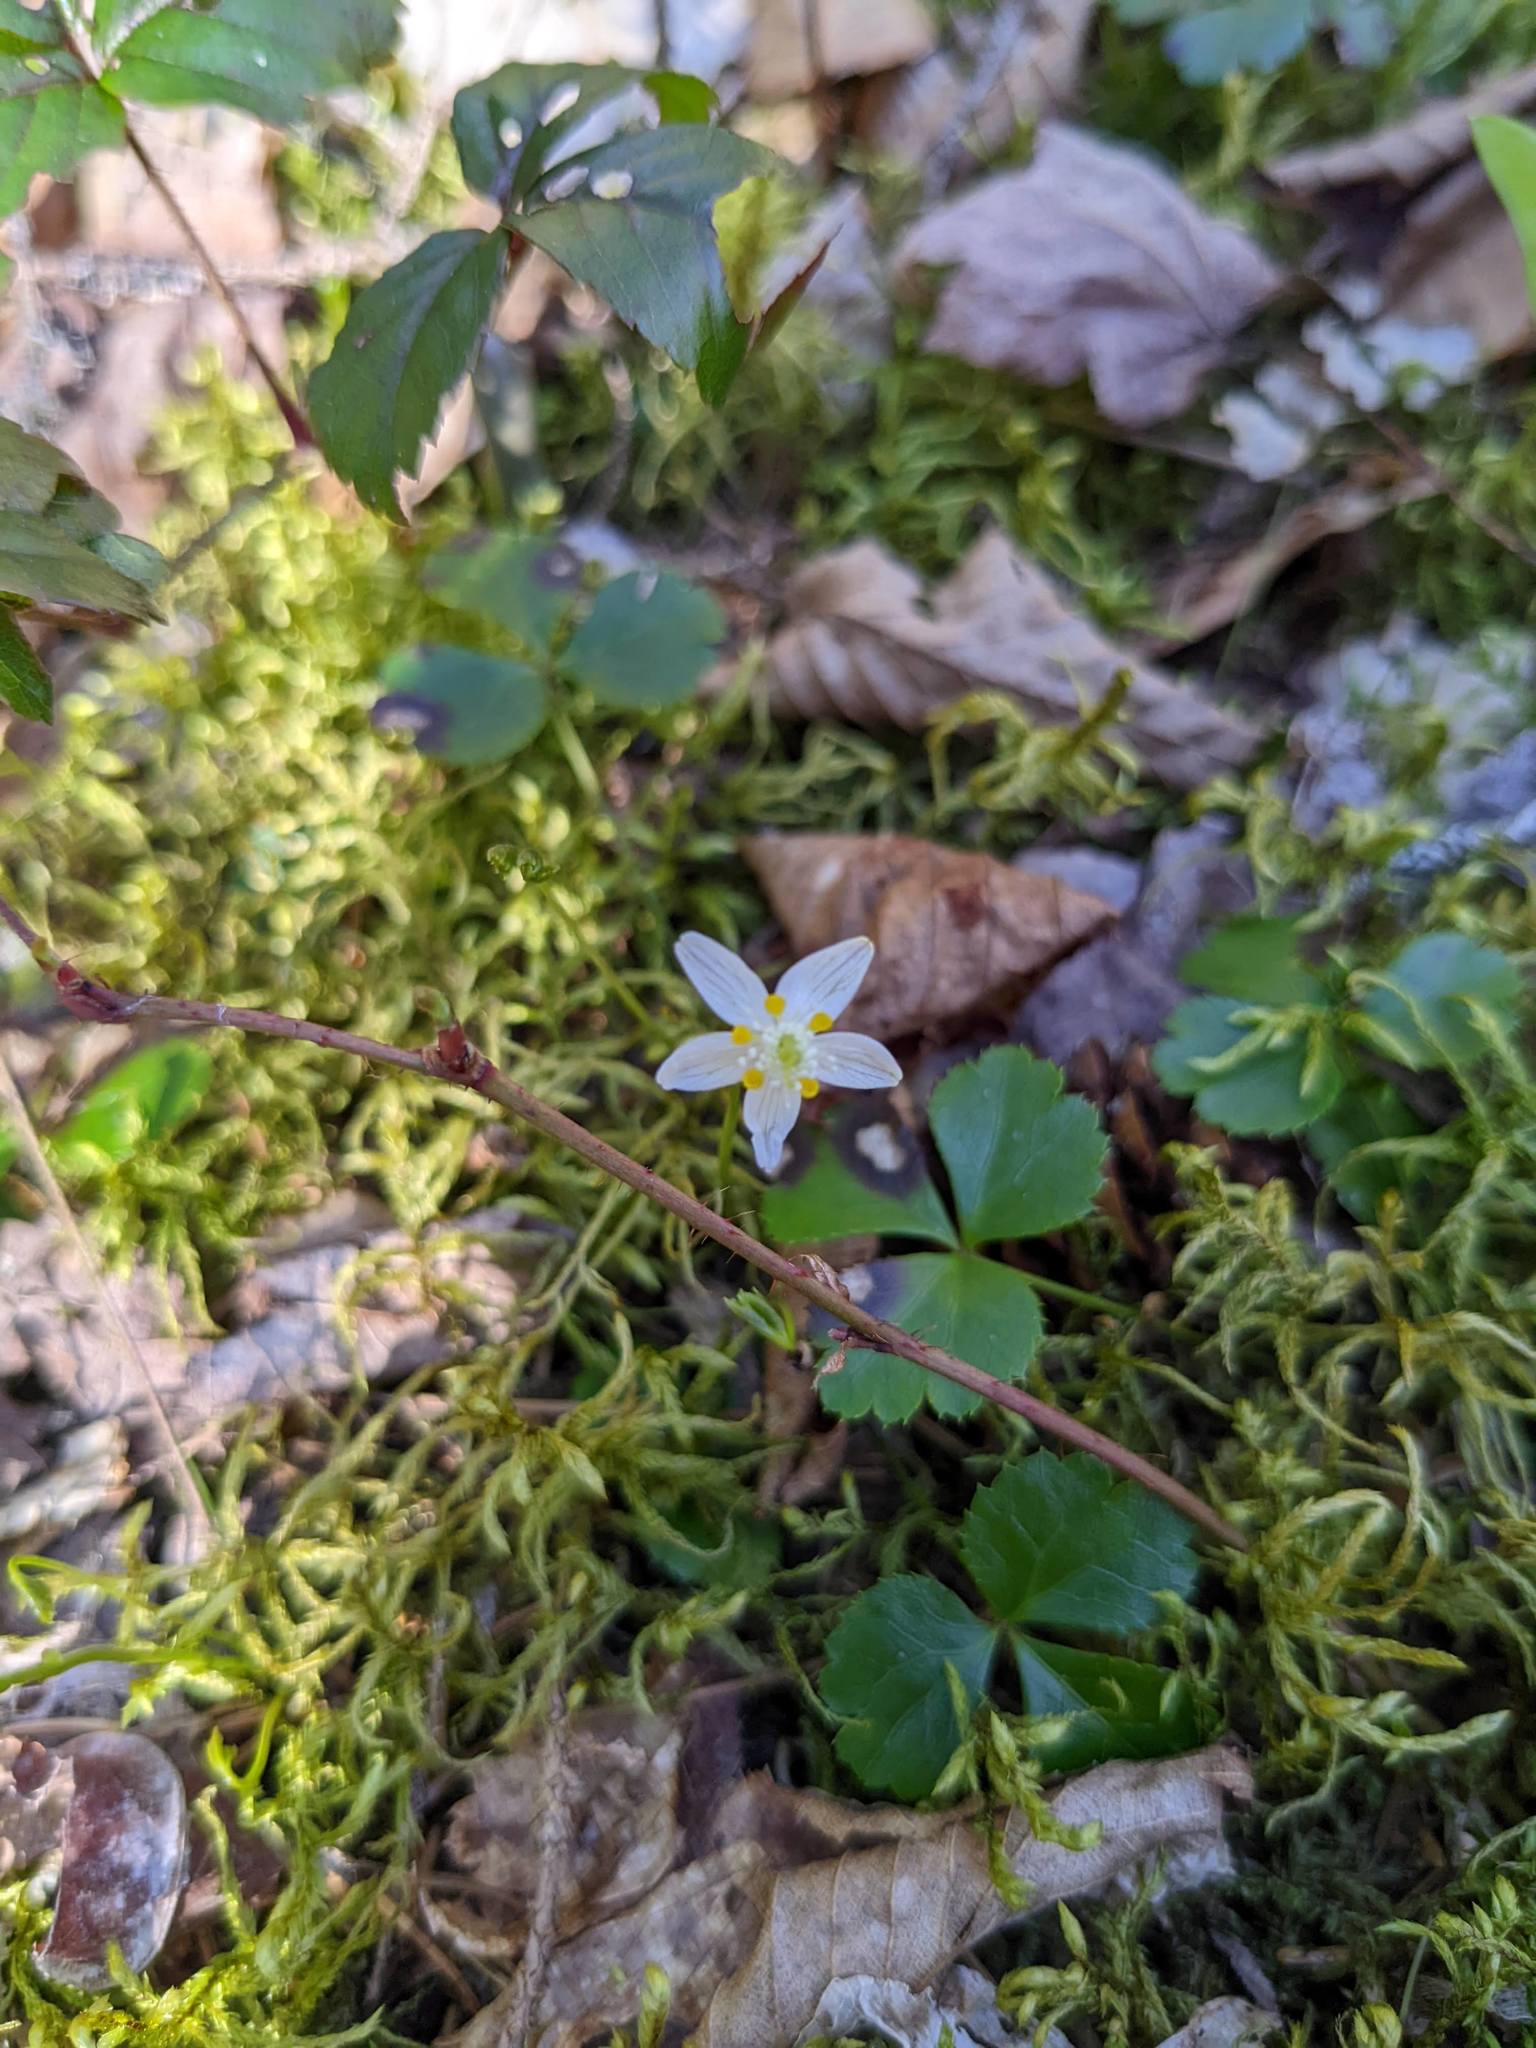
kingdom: Plantae
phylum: Tracheophyta
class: Magnoliopsida
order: Ranunculales
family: Ranunculaceae
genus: Coptis
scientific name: Coptis trifolia
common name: Canker-root
